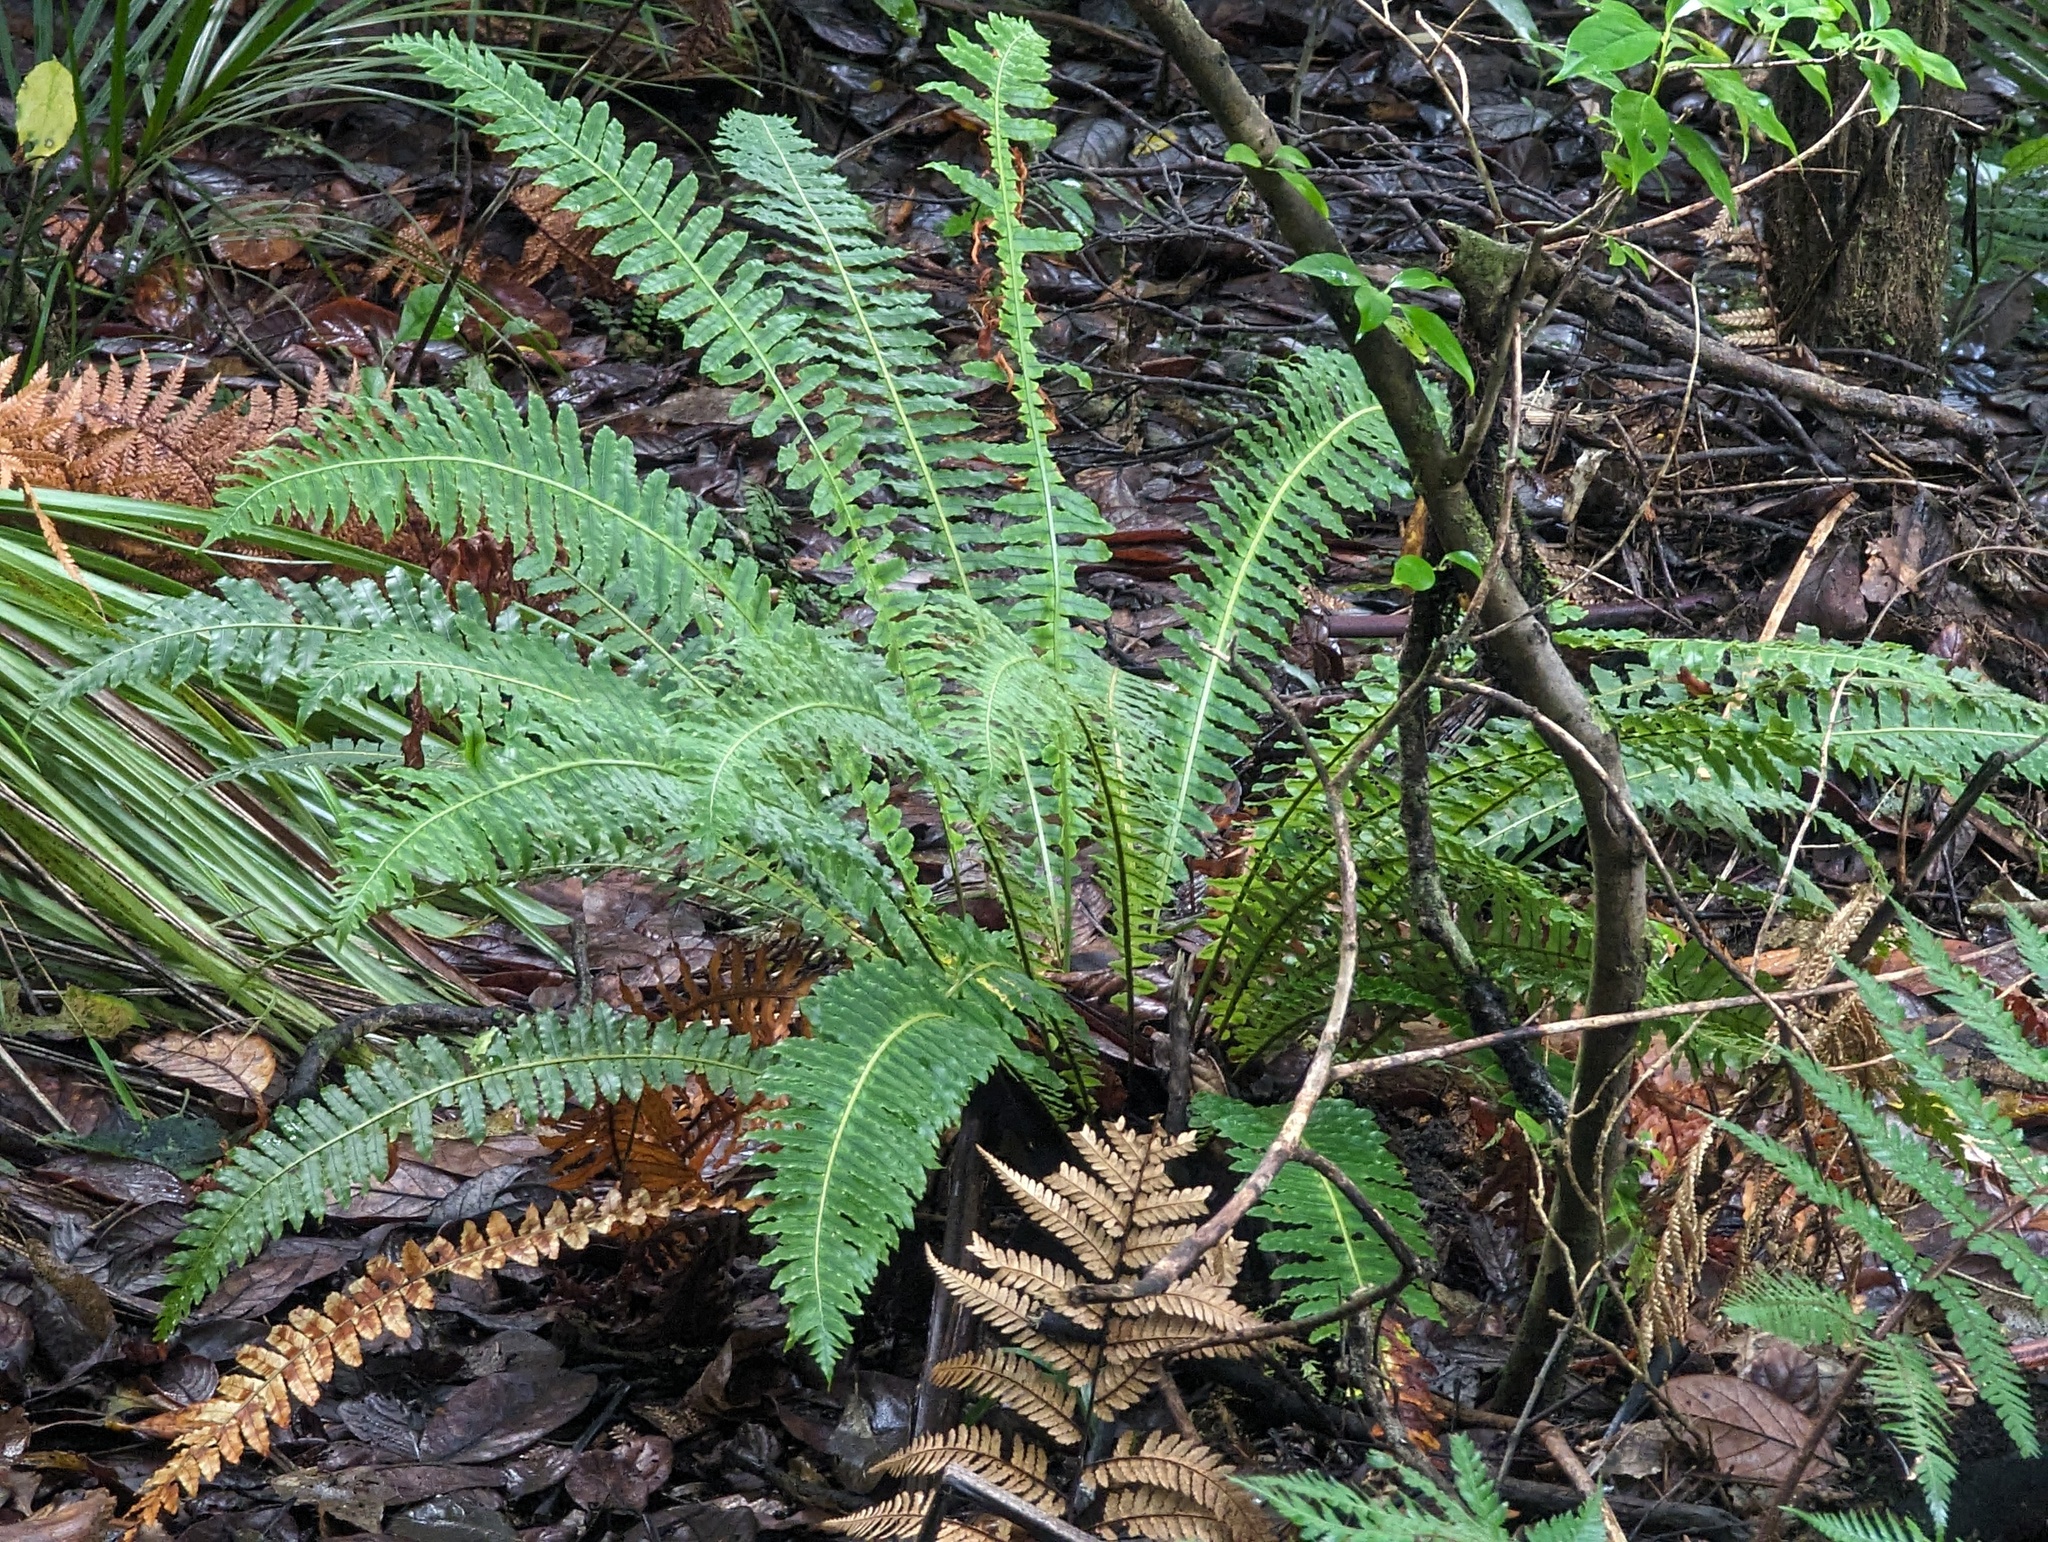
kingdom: Plantae
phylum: Tracheophyta
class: Polypodiopsida
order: Polypodiales
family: Blechnaceae
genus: Lomaria
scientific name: Lomaria discolor
